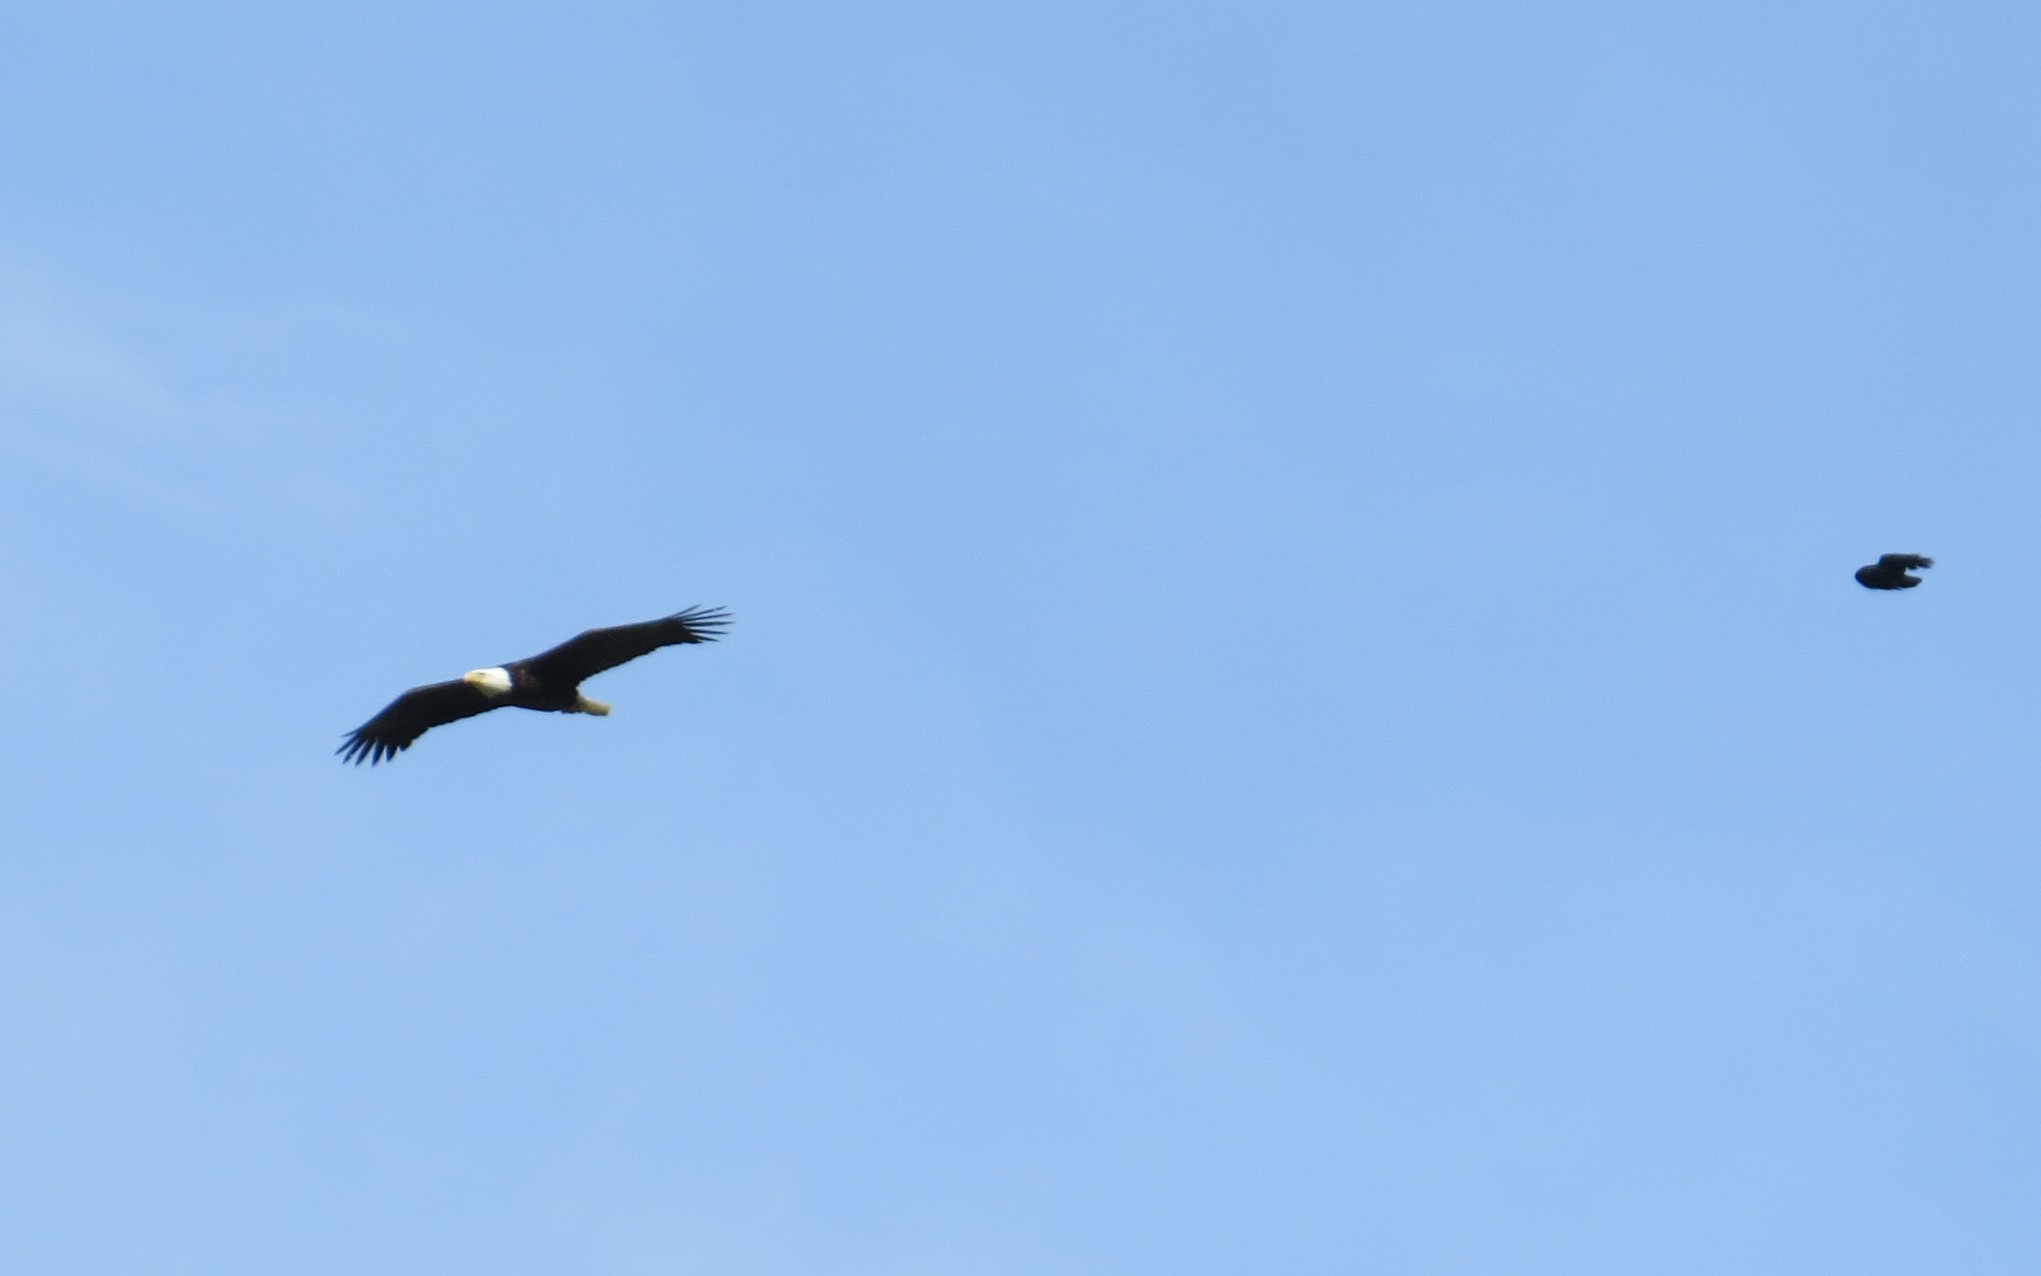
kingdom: Animalia
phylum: Chordata
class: Aves
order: Accipitriformes
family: Accipitridae
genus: Haliaeetus
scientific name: Haliaeetus leucocephalus
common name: Bald eagle
